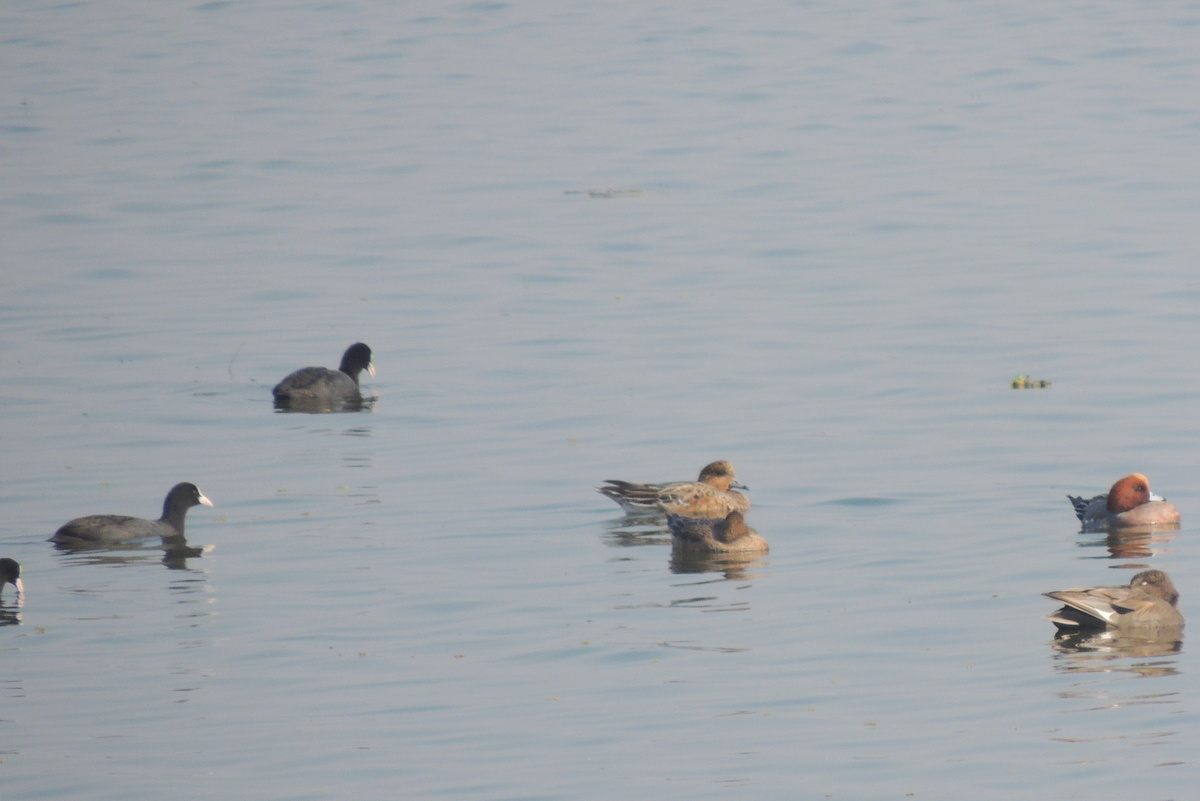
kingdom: Animalia
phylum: Chordata
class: Aves
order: Gruiformes
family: Rallidae
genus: Fulica
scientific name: Fulica atra
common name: Eurasian coot
